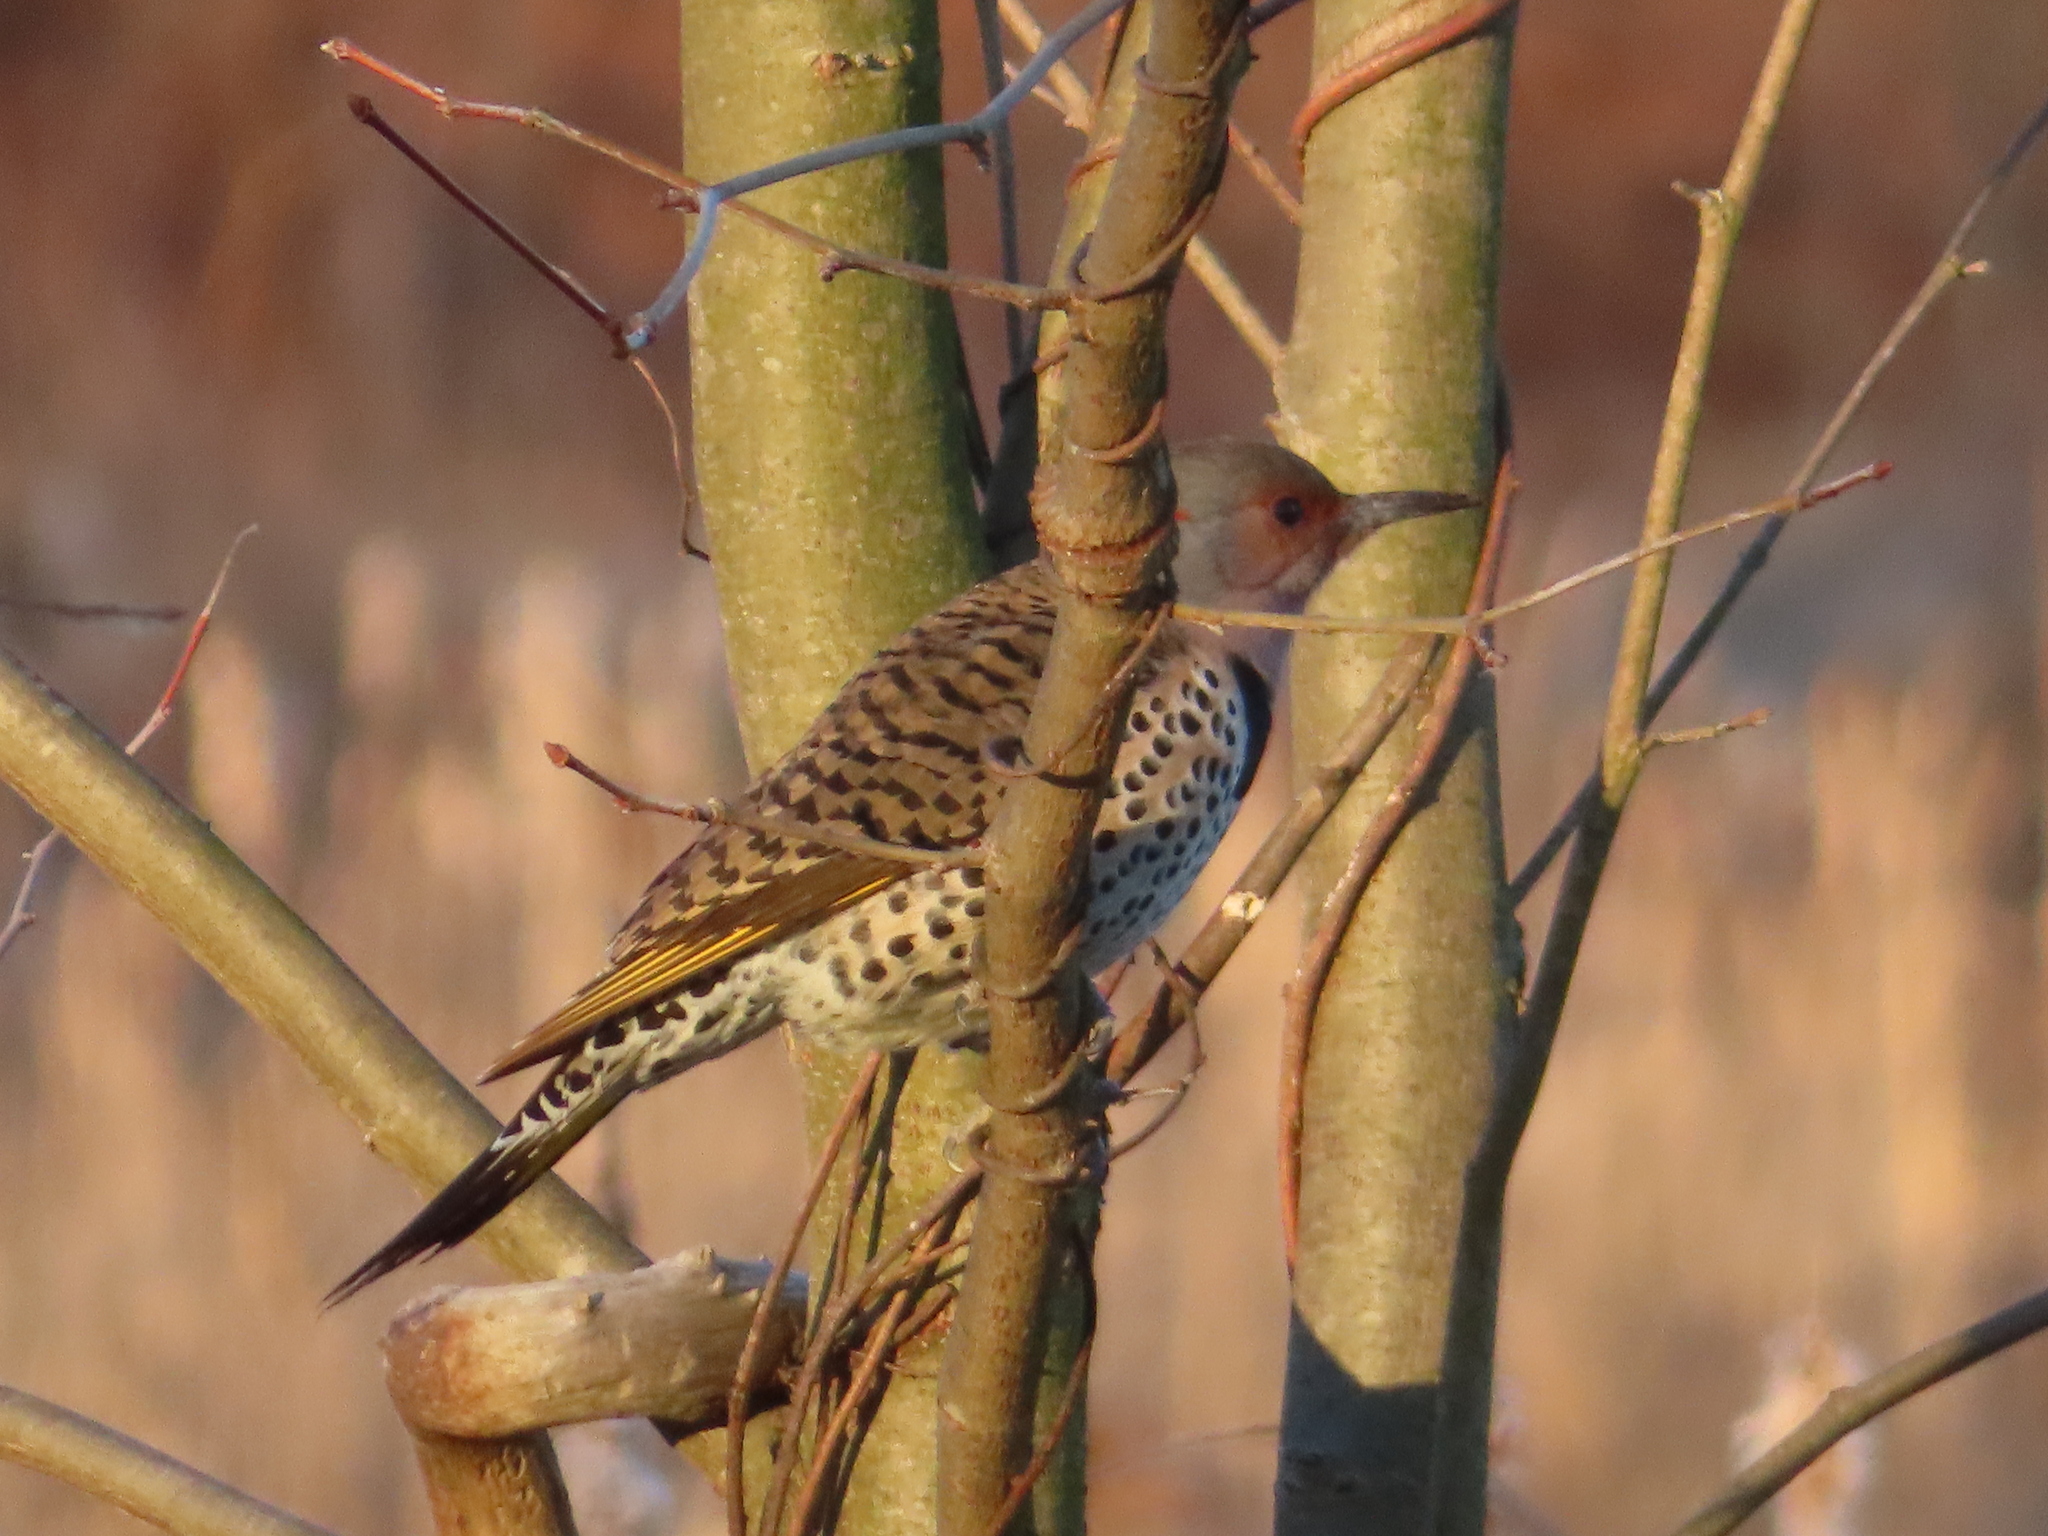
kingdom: Animalia
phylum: Chordata
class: Aves
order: Piciformes
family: Picidae
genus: Colaptes
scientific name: Colaptes auratus
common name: Northern flicker
